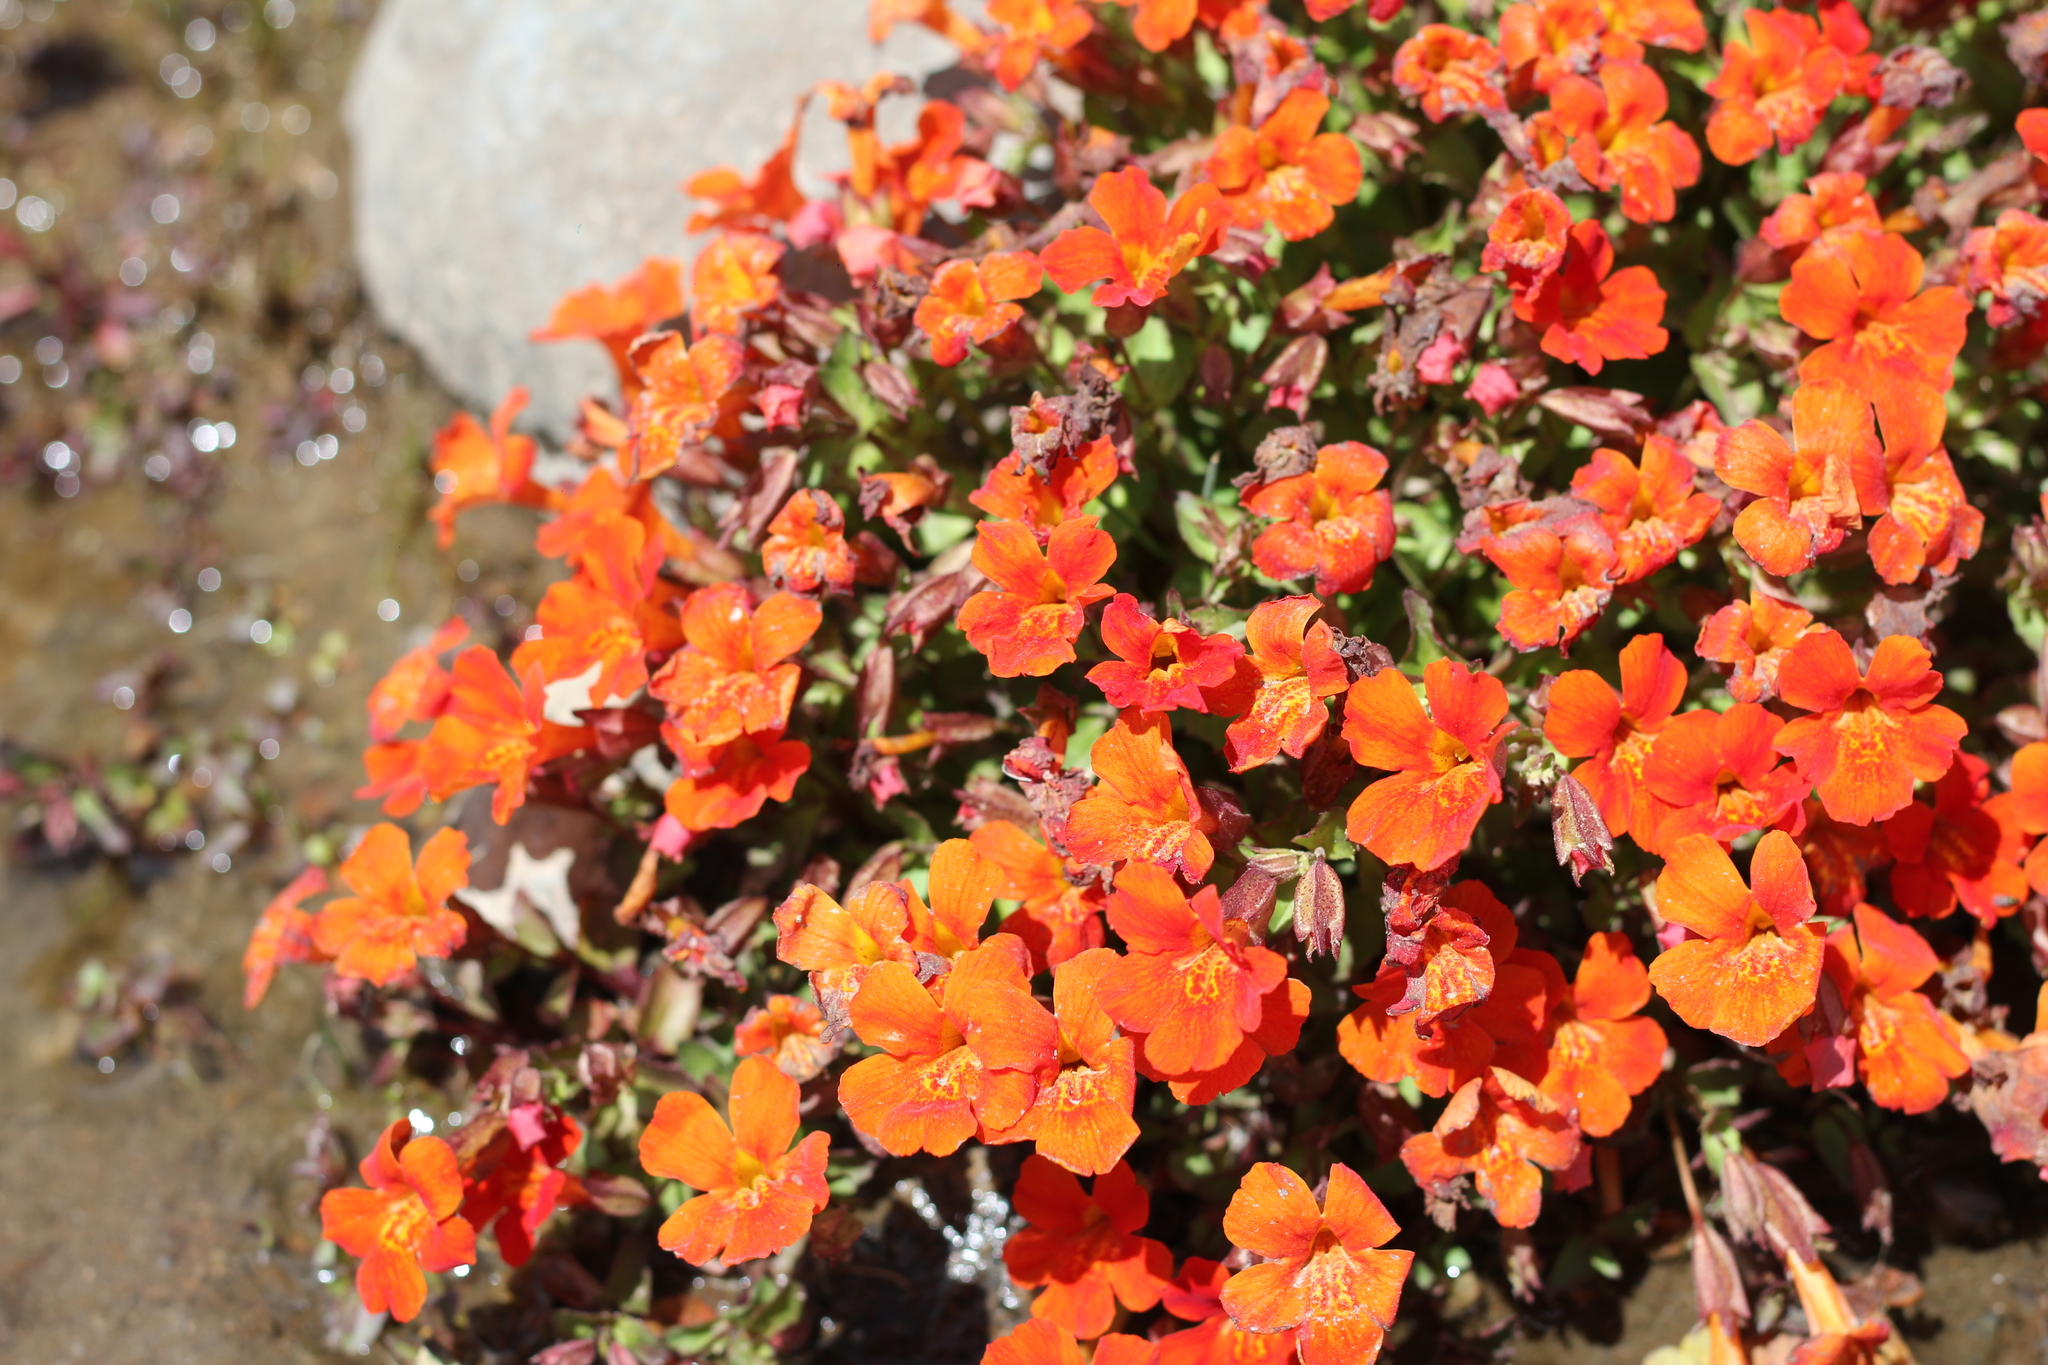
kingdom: Plantae
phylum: Tracheophyta
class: Magnoliopsida
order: Lamiales
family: Phrymaceae
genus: Erythranthe
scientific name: Erythranthe cuprea
